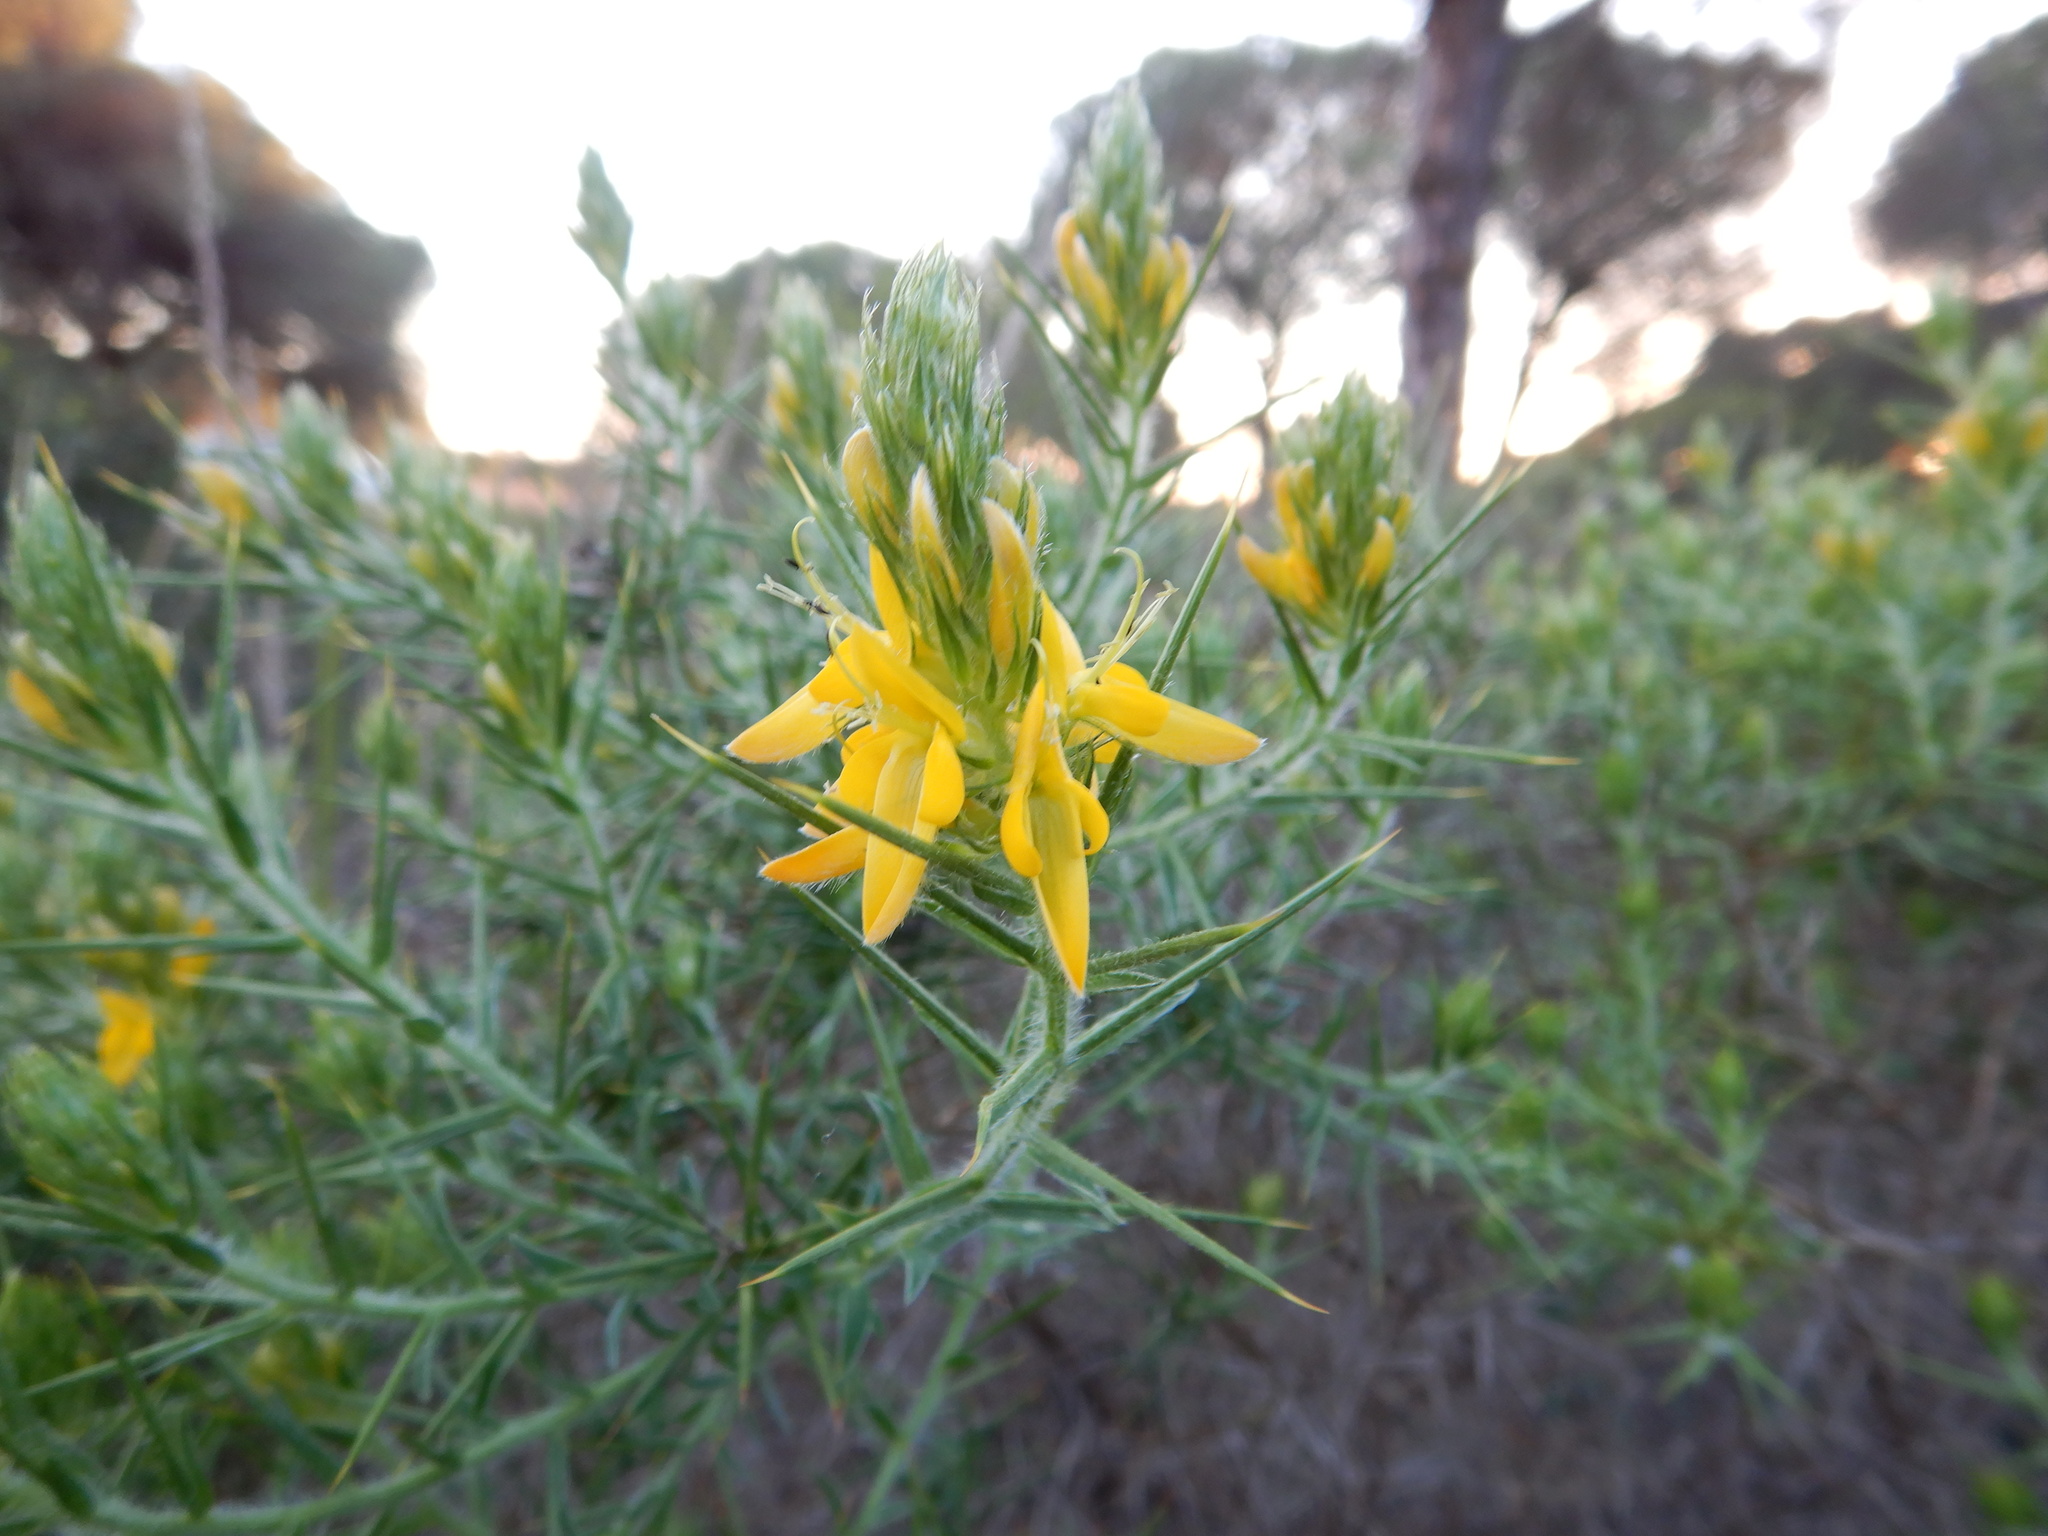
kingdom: Plantae
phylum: Tracheophyta
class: Magnoliopsida
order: Fabales
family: Fabaceae
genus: Genista
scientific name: Genista hirsuta
